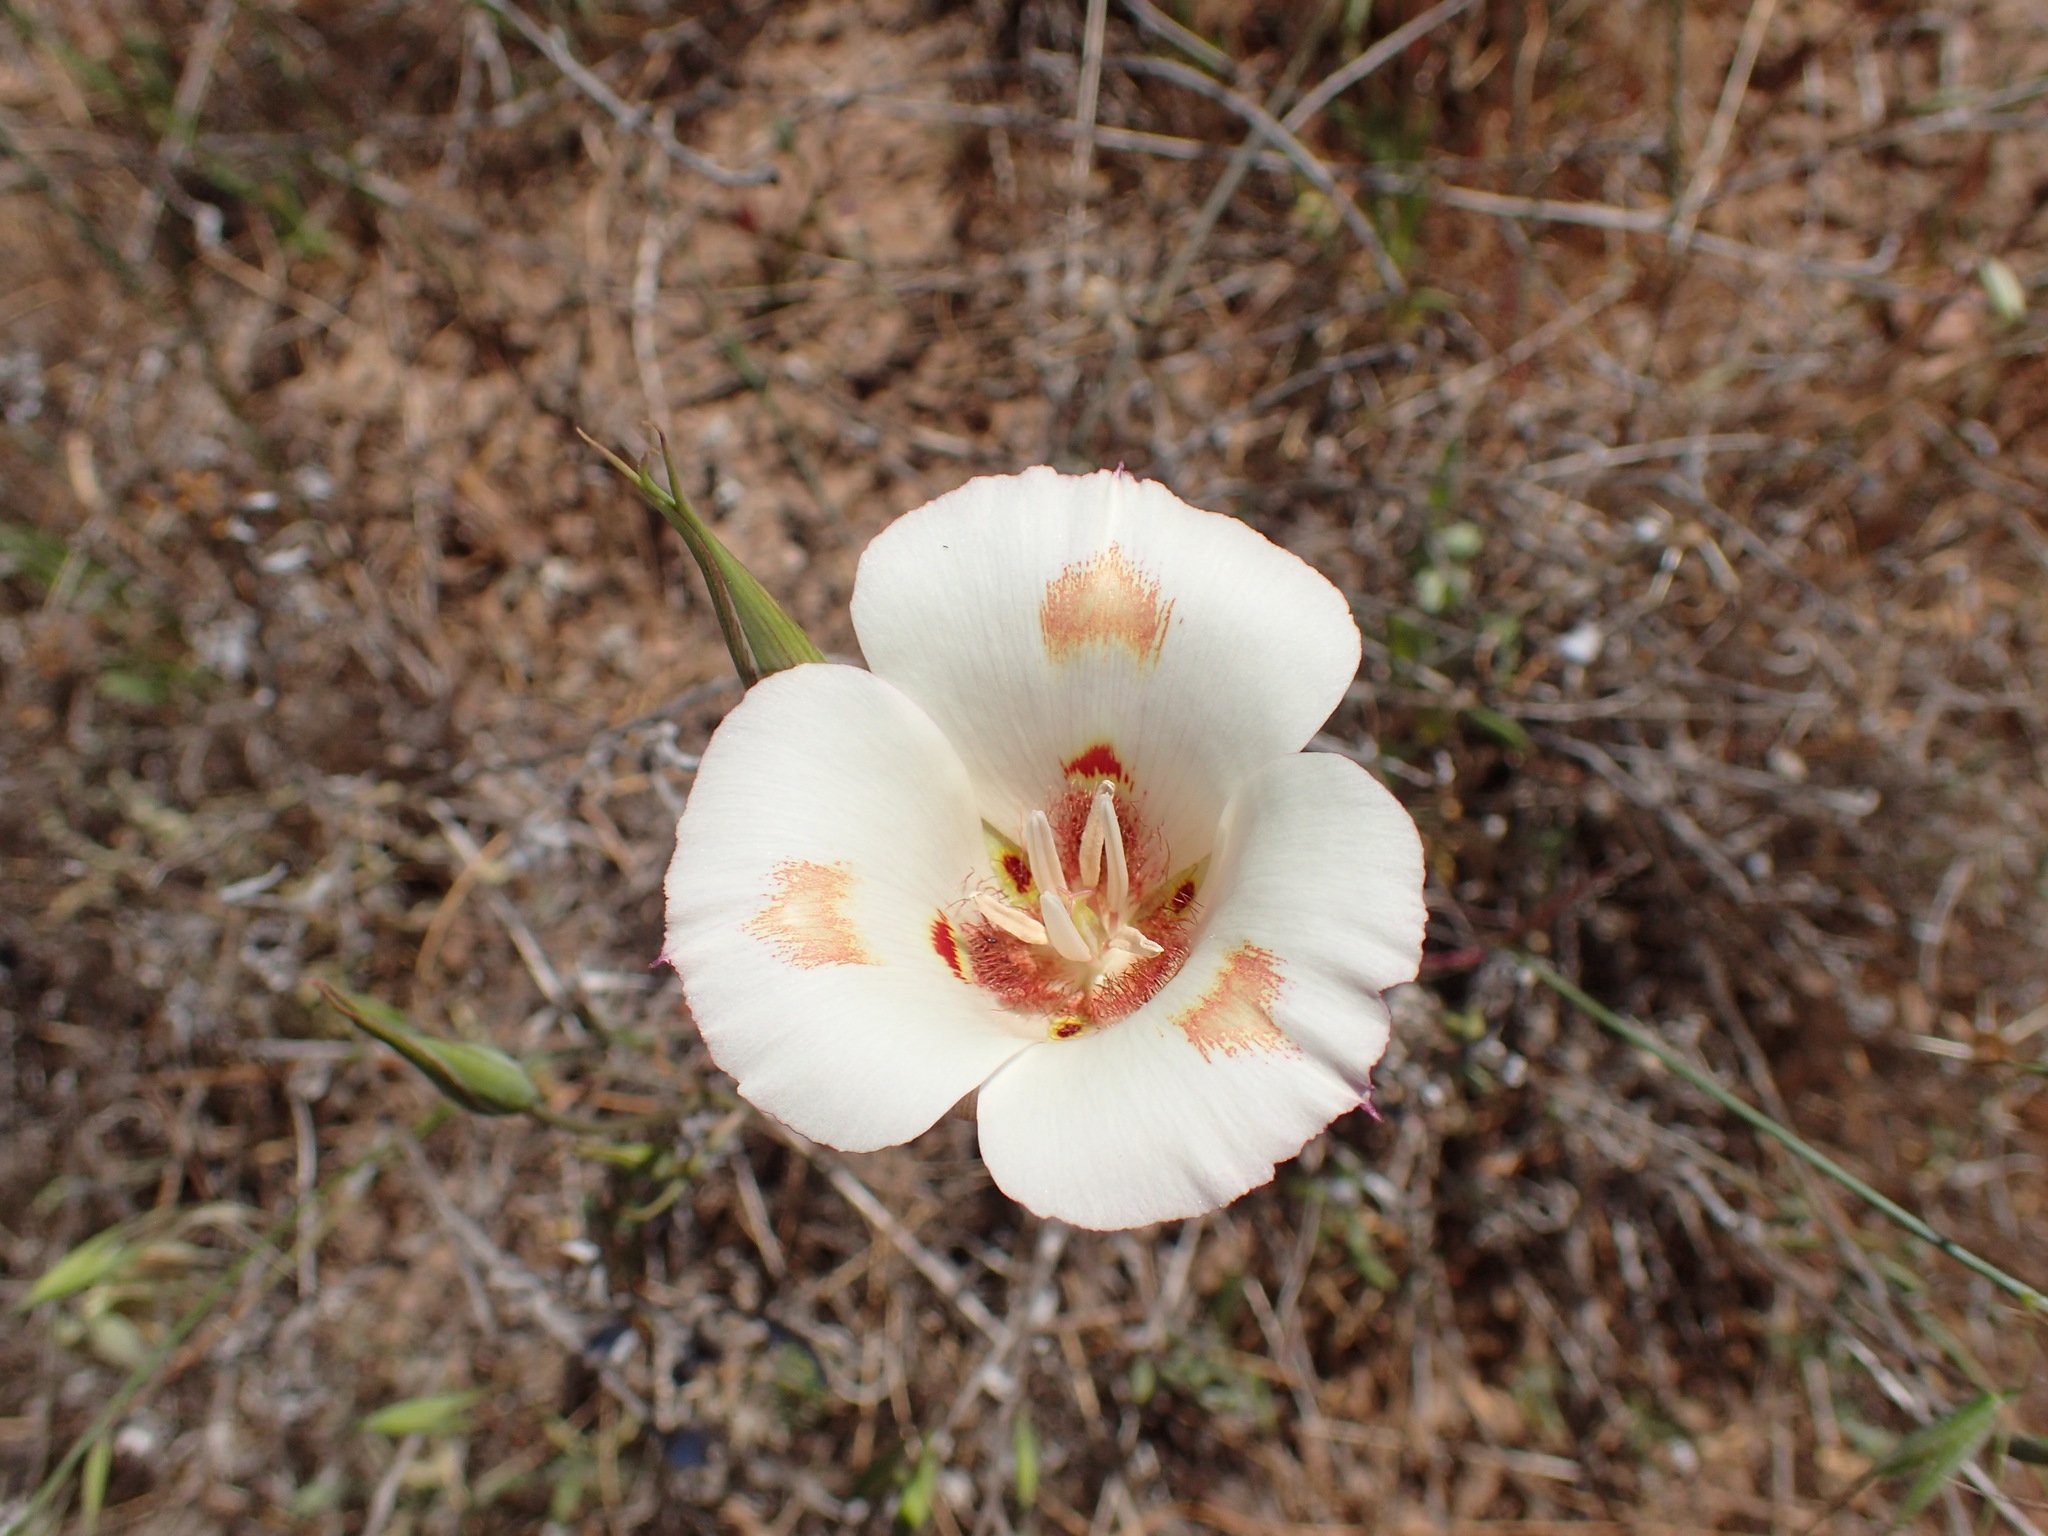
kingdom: Plantae
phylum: Tracheophyta
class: Liliopsida
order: Liliales
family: Liliaceae
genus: Calochortus
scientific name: Calochortus venustus
